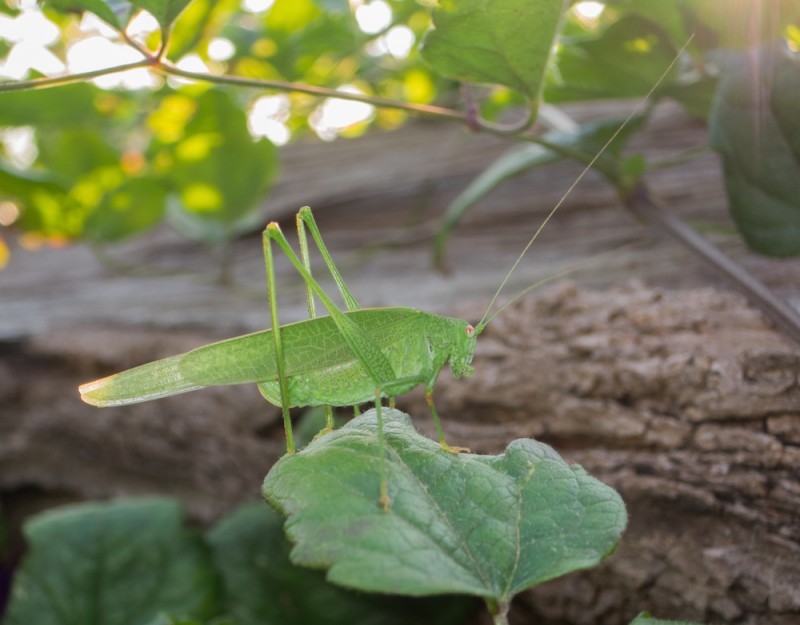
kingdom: Animalia
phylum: Arthropoda
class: Insecta
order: Orthoptera
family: Tettigoniidae
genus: Phaneroptera
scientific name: Phaneroptera nana
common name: Southern sickle bush-cricket
